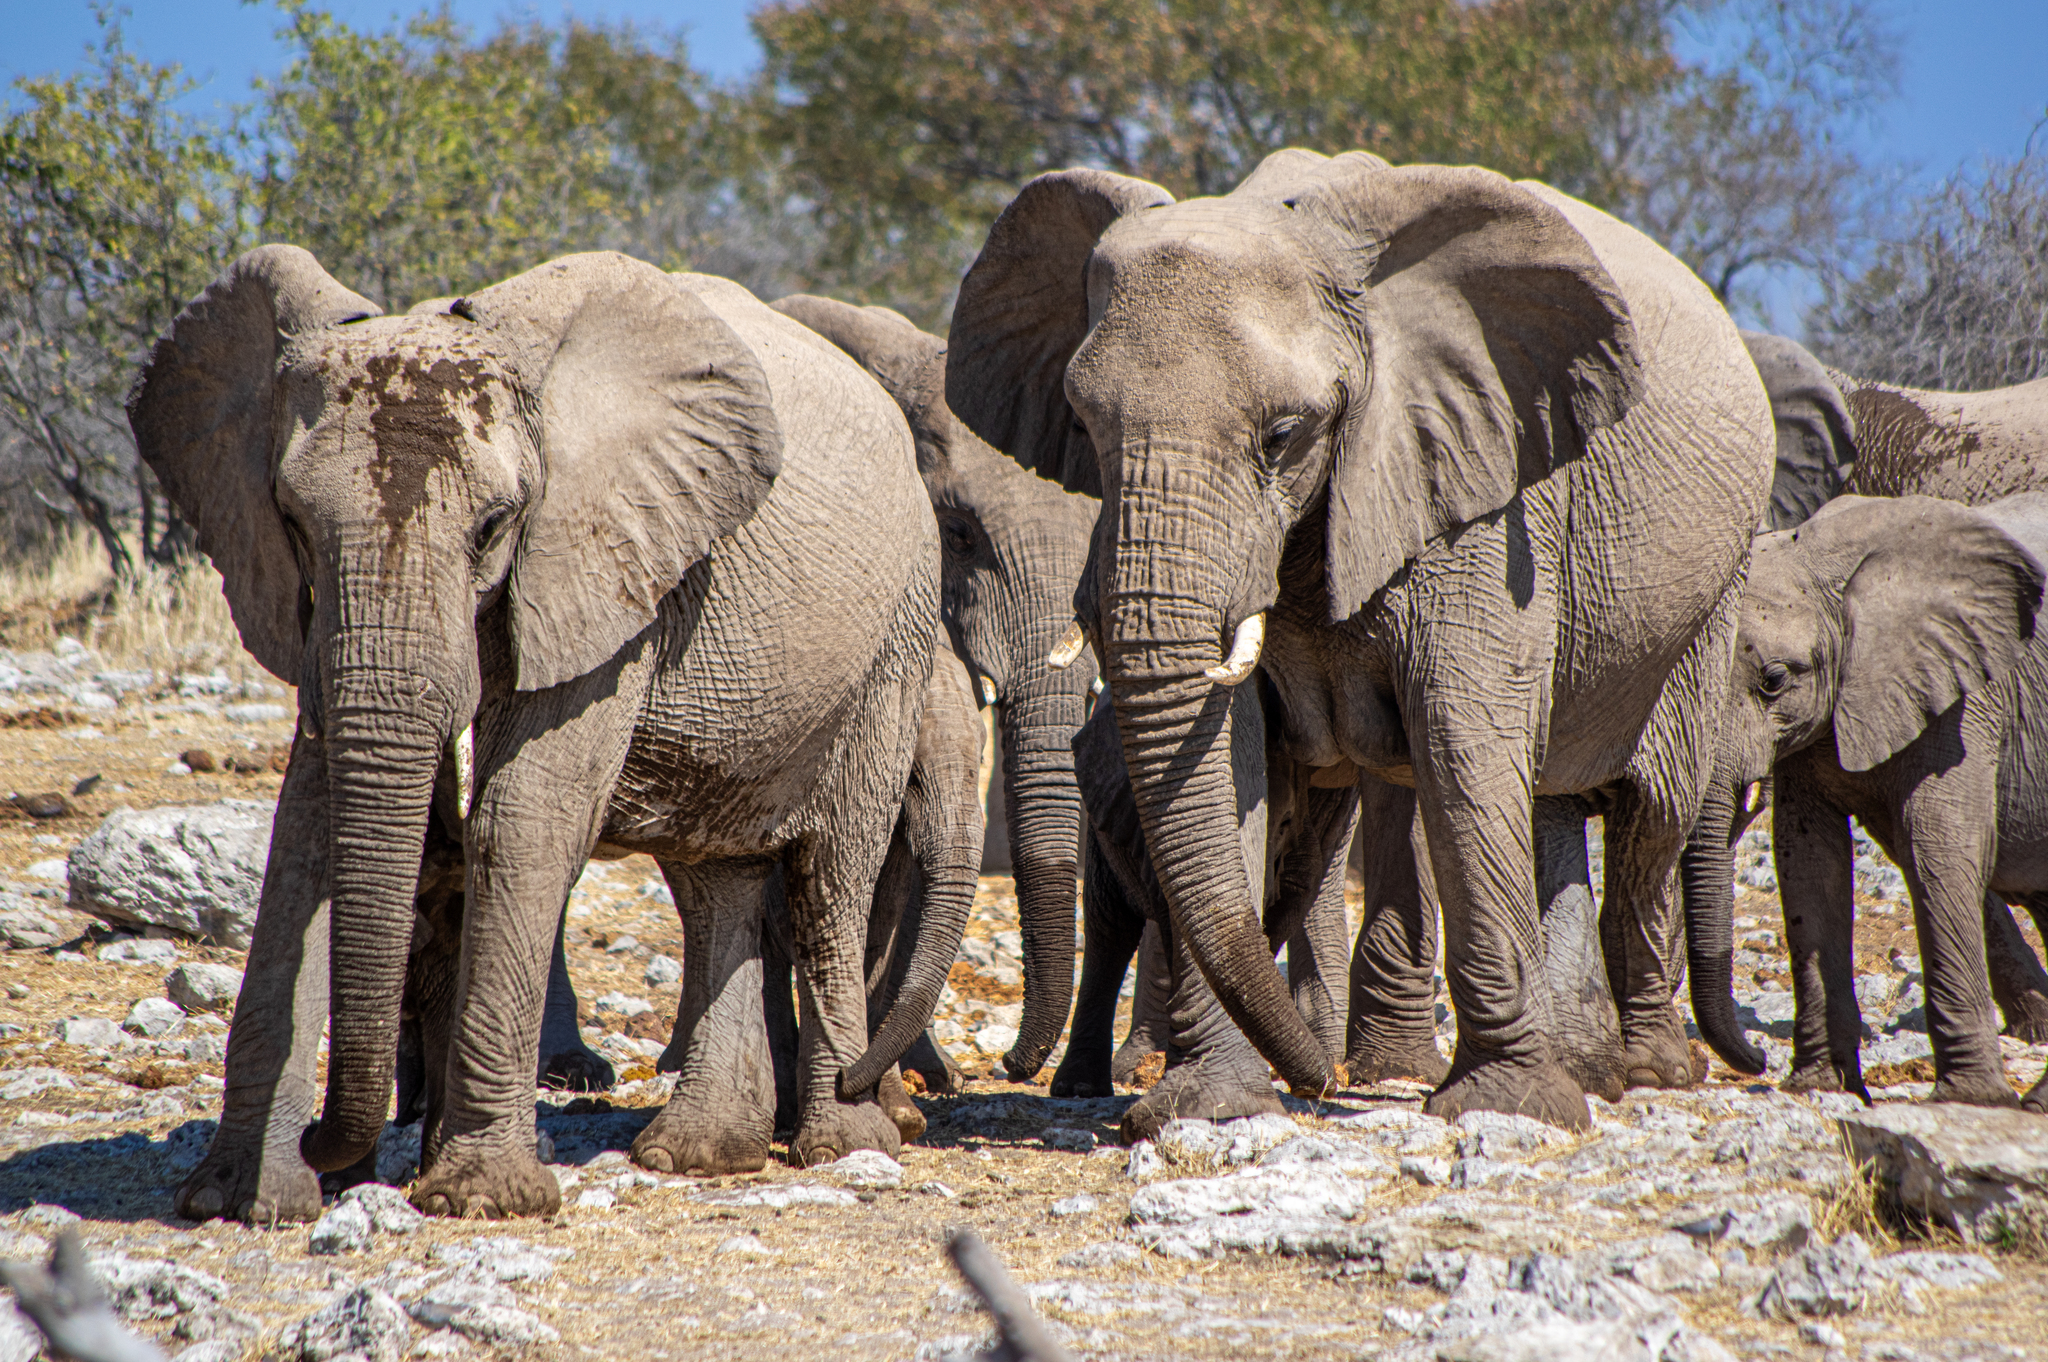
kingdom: Animalia
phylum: Chordata
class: Mammalia
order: Proboscidea
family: Elephantidae
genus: Loxodonta
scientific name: Loxodonta africana
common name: African elephant
